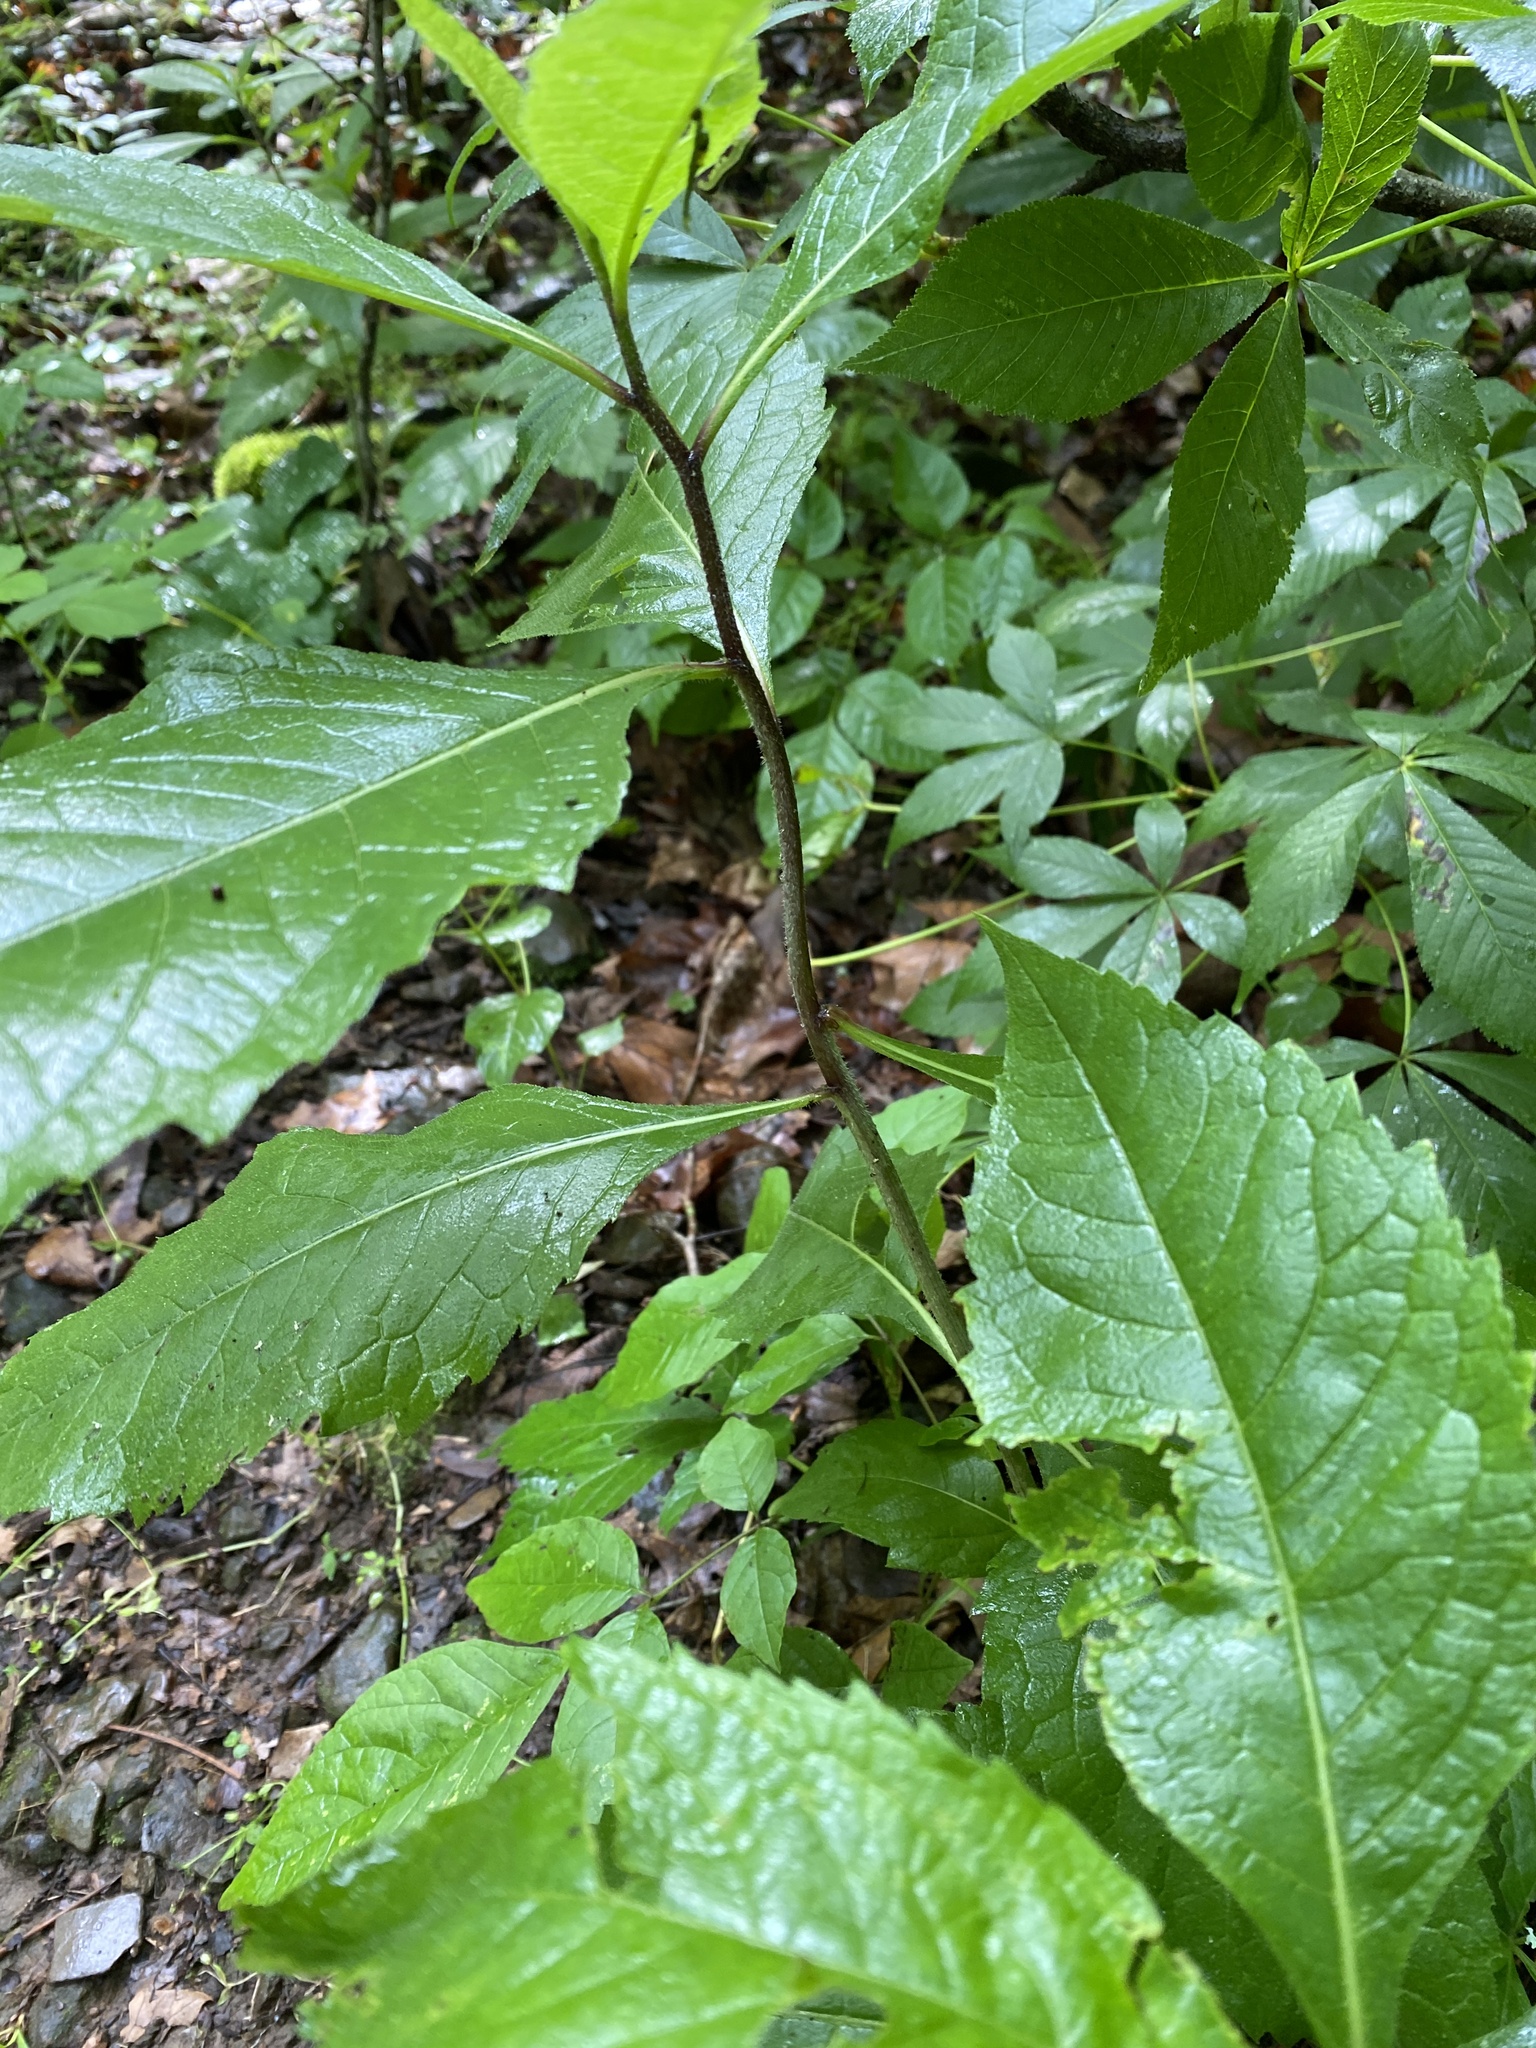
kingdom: Plantae
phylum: Tracheophyta
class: Magnoliopsida
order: Asterales
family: Asteraceae
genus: Verbesina
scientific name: Verbesina alternifolia
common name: Wingstem
